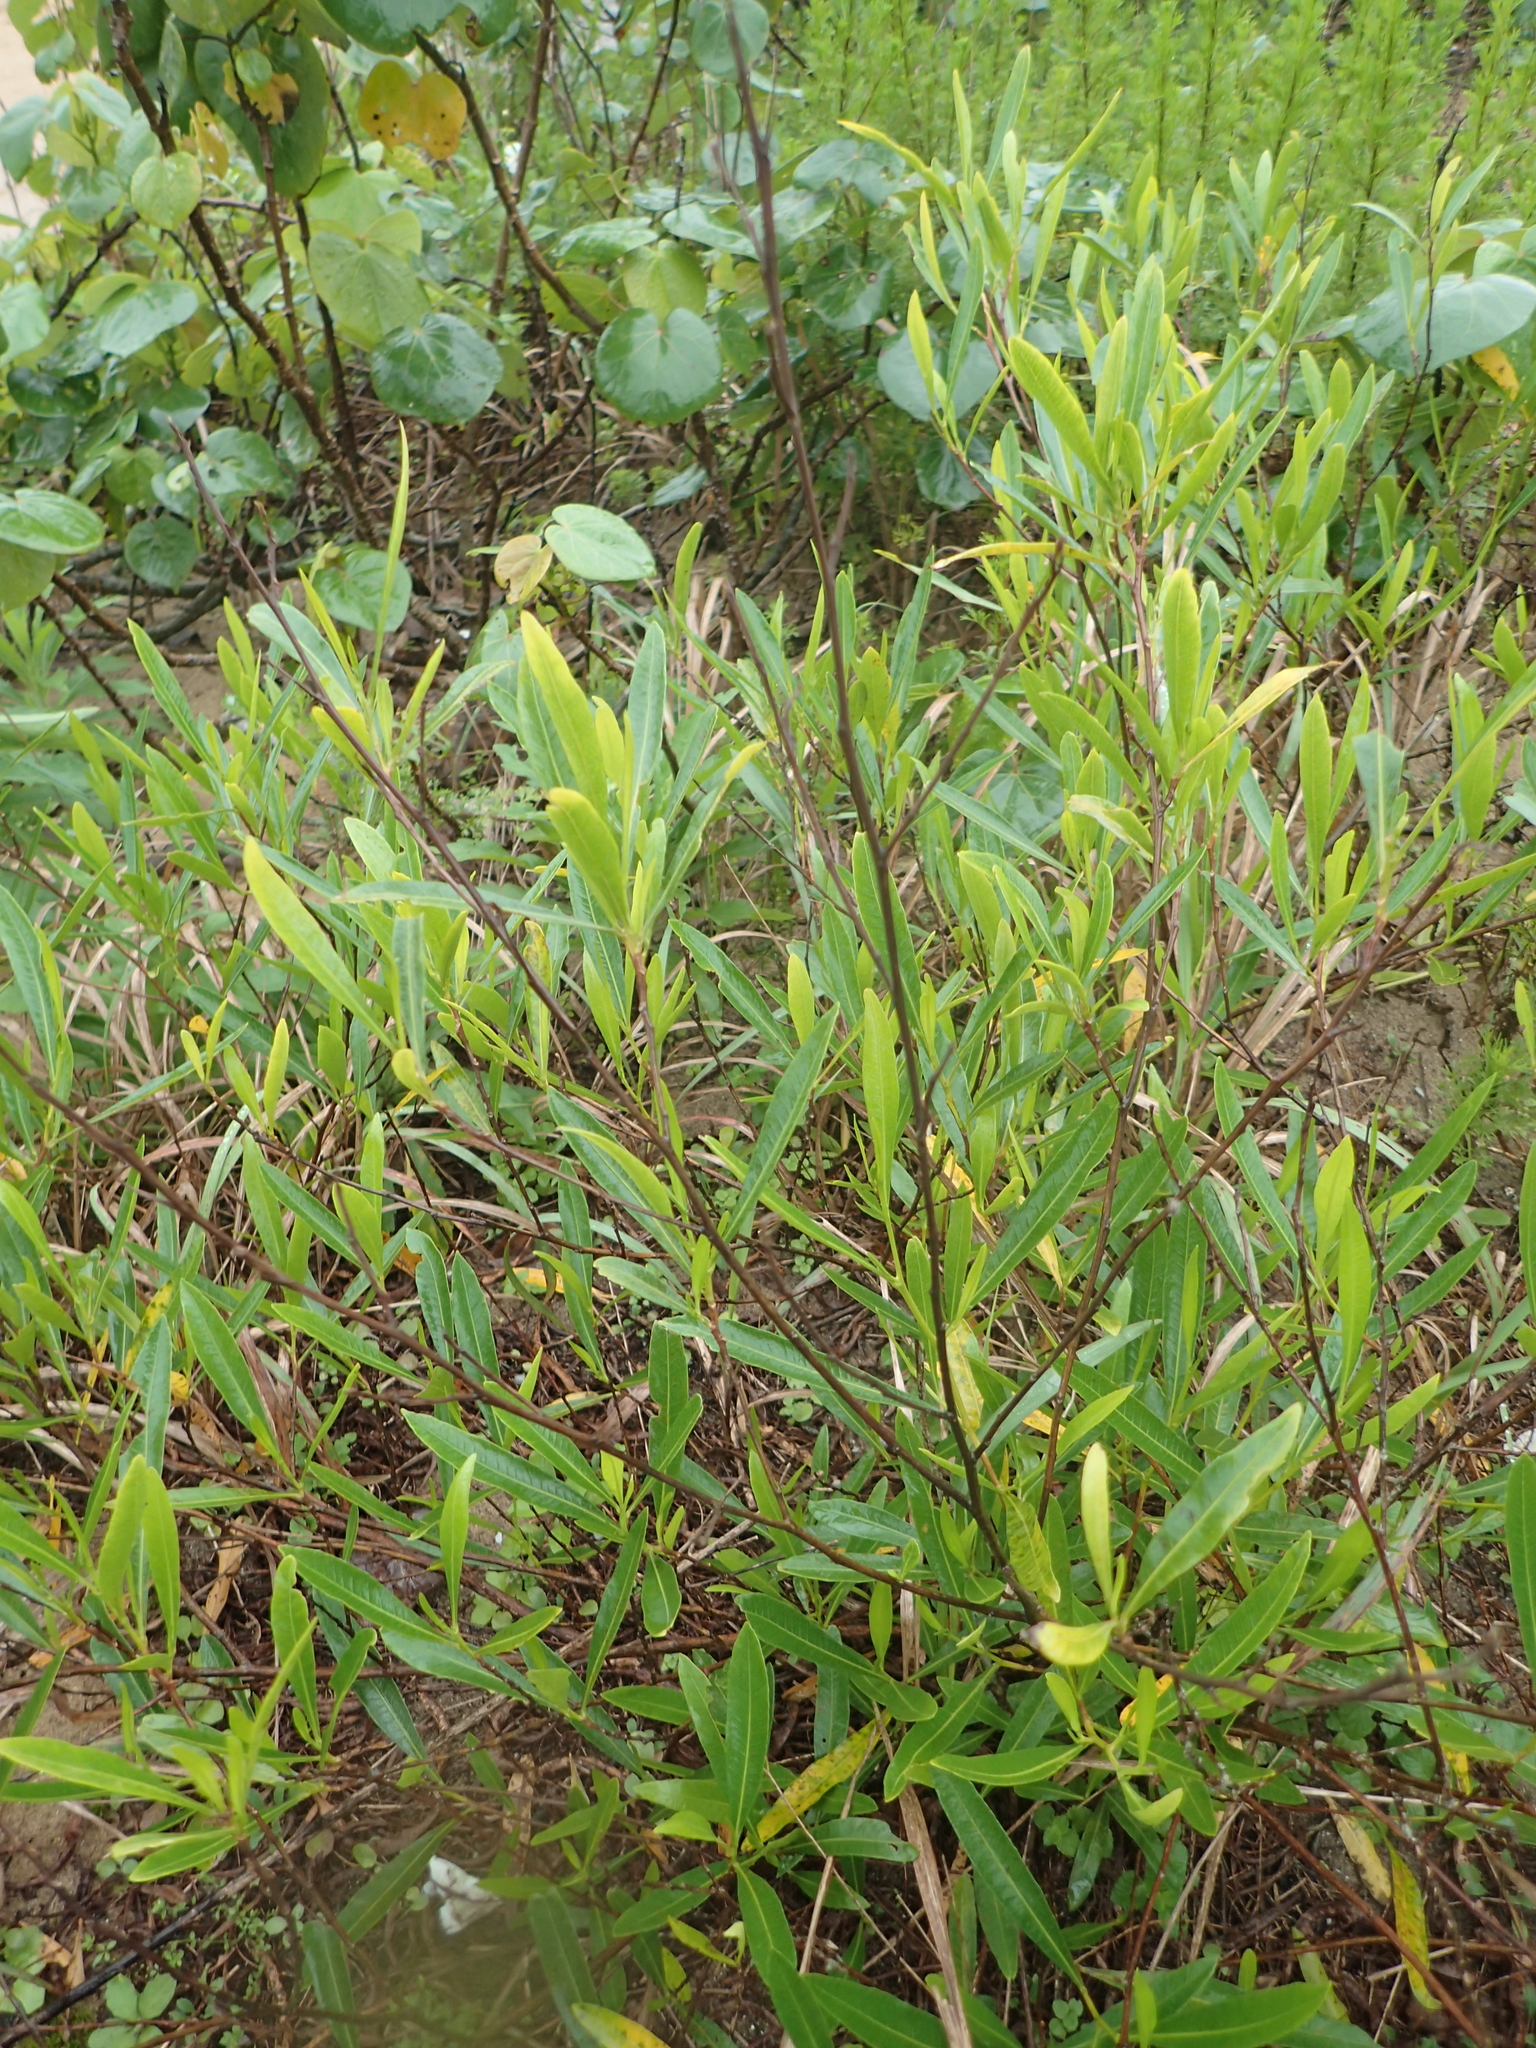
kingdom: Plantae
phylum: Tracheophyta
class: Magnoliopsida
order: Sapindales
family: Sapindaceae
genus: Dodonaea
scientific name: Dodonaea viscosa
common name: Hopbush
